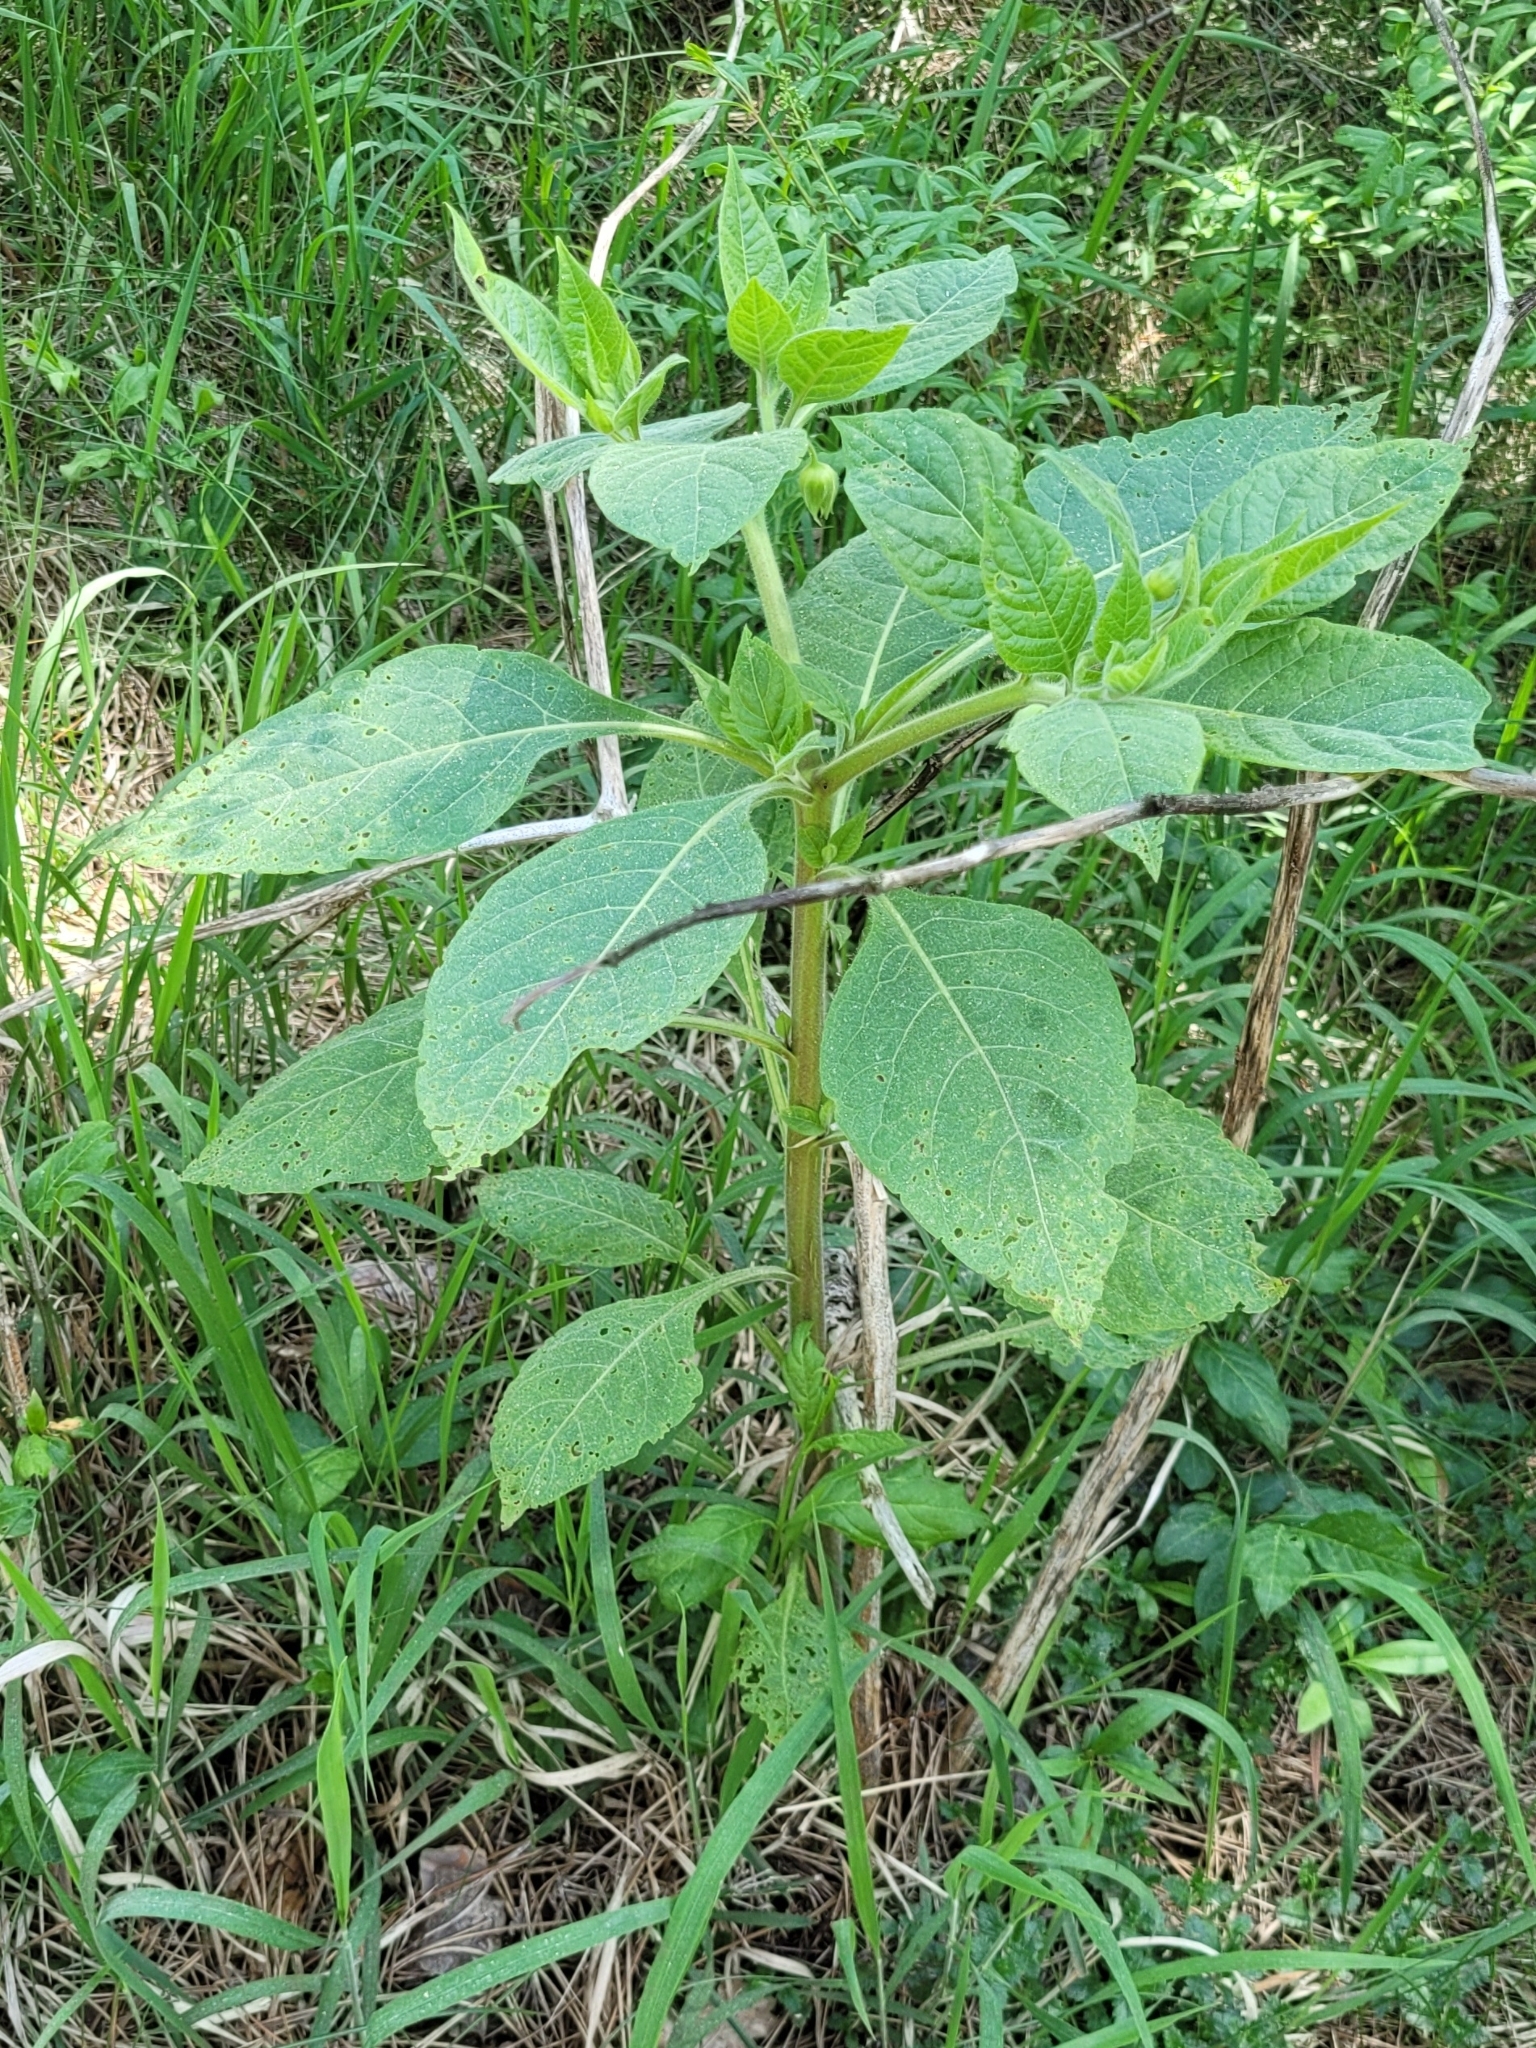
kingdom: Plantae
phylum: Tracheophyta
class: Magnoliopsida
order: Solanales
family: Solanaceae
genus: Atropa
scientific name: Atropa belladonna
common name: Deadly nightshade
